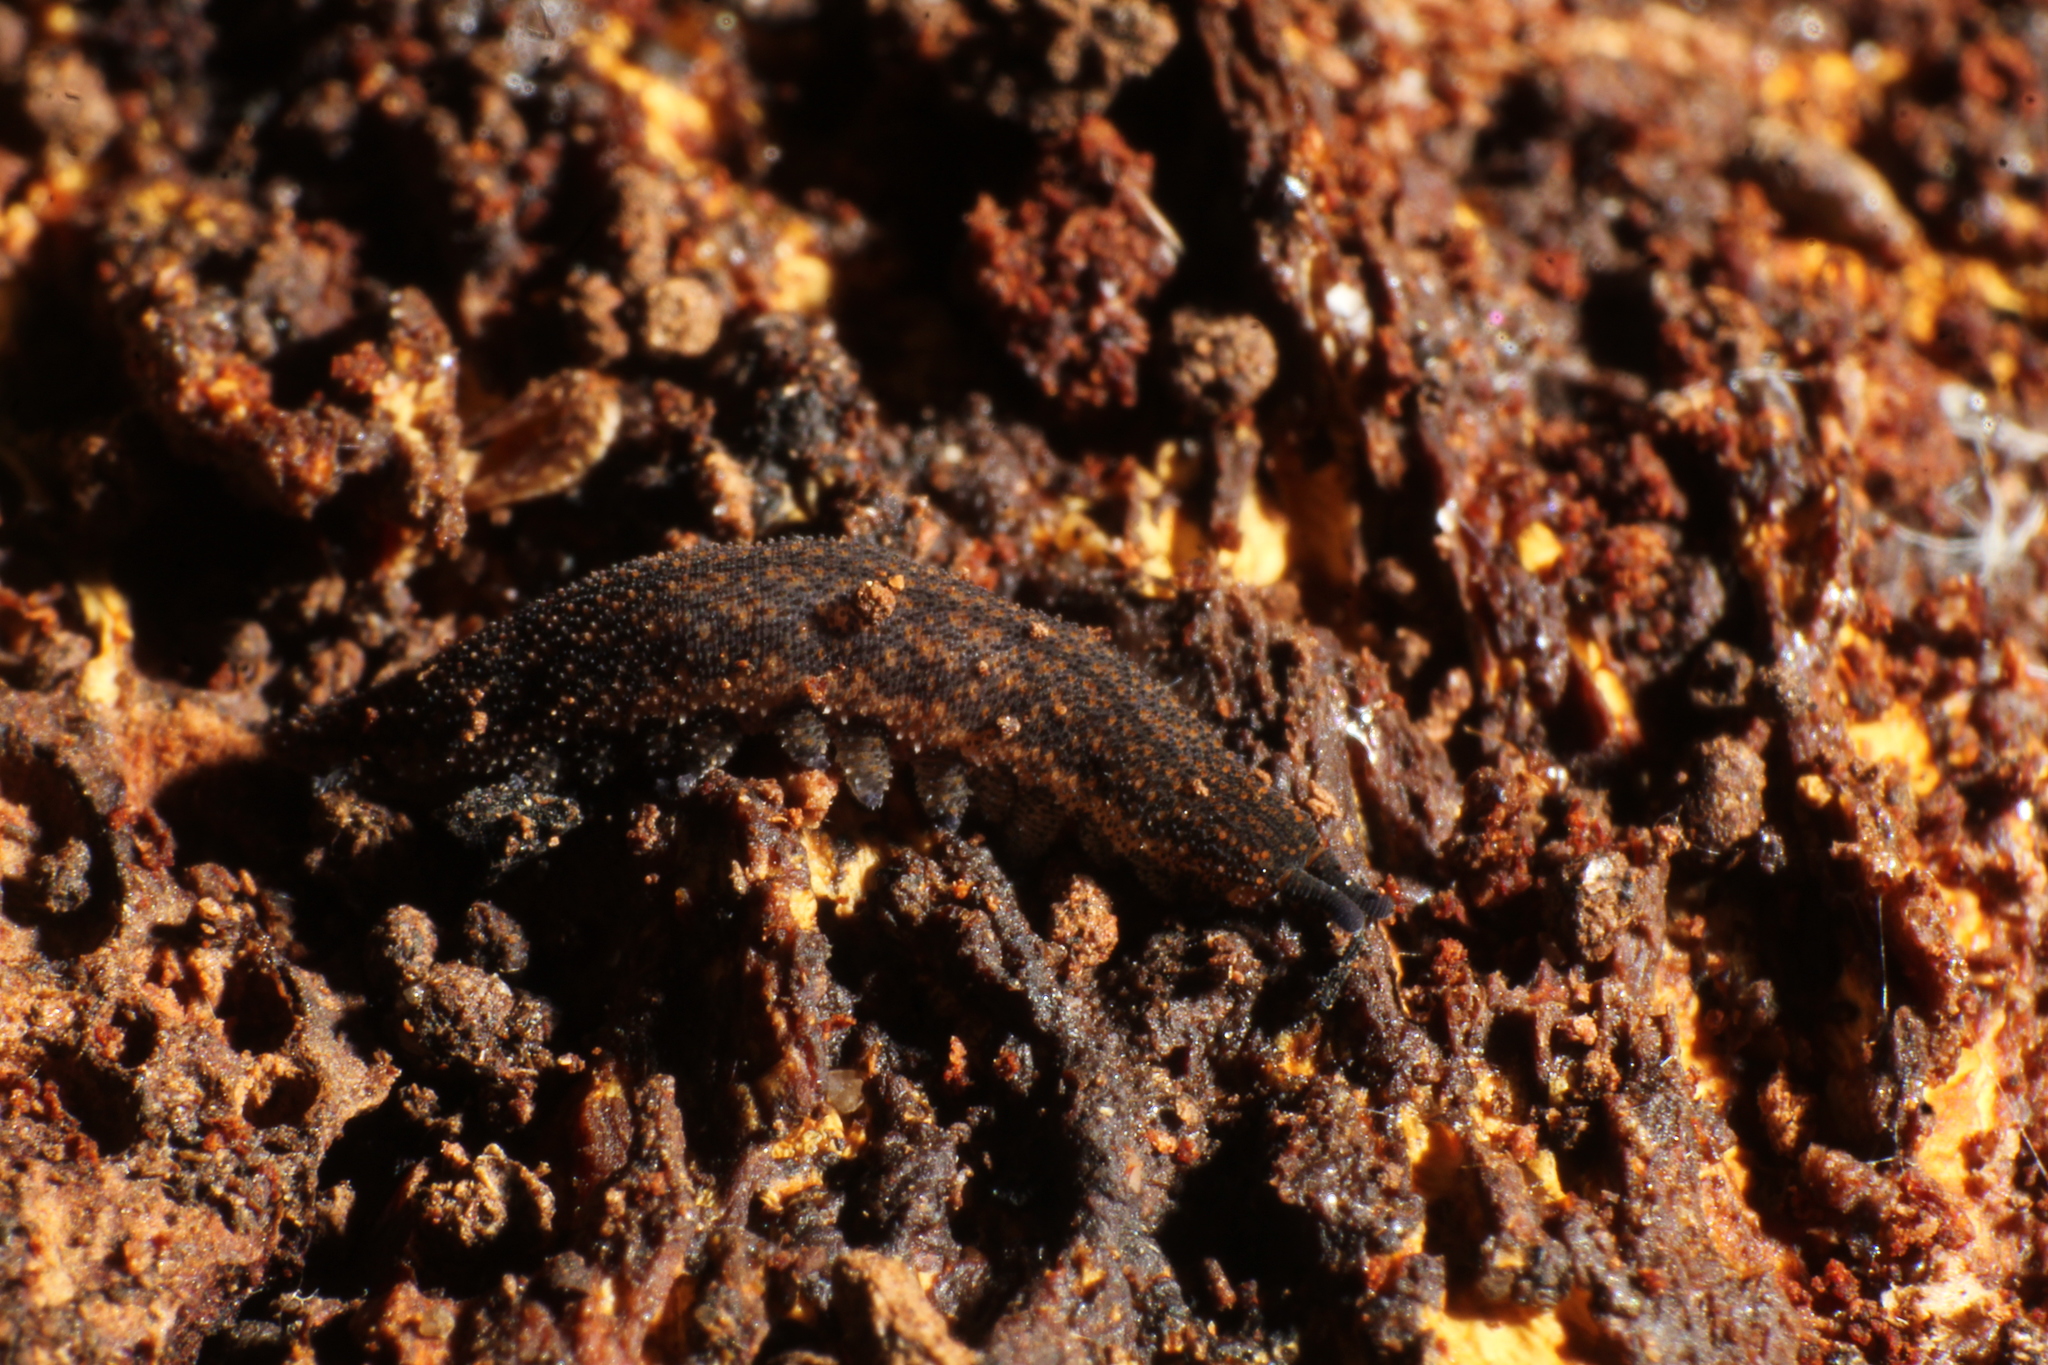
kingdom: Animalia
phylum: Onychophora
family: Peripatopsidae
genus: Kumbadjena
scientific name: Kumbadjena kaata
